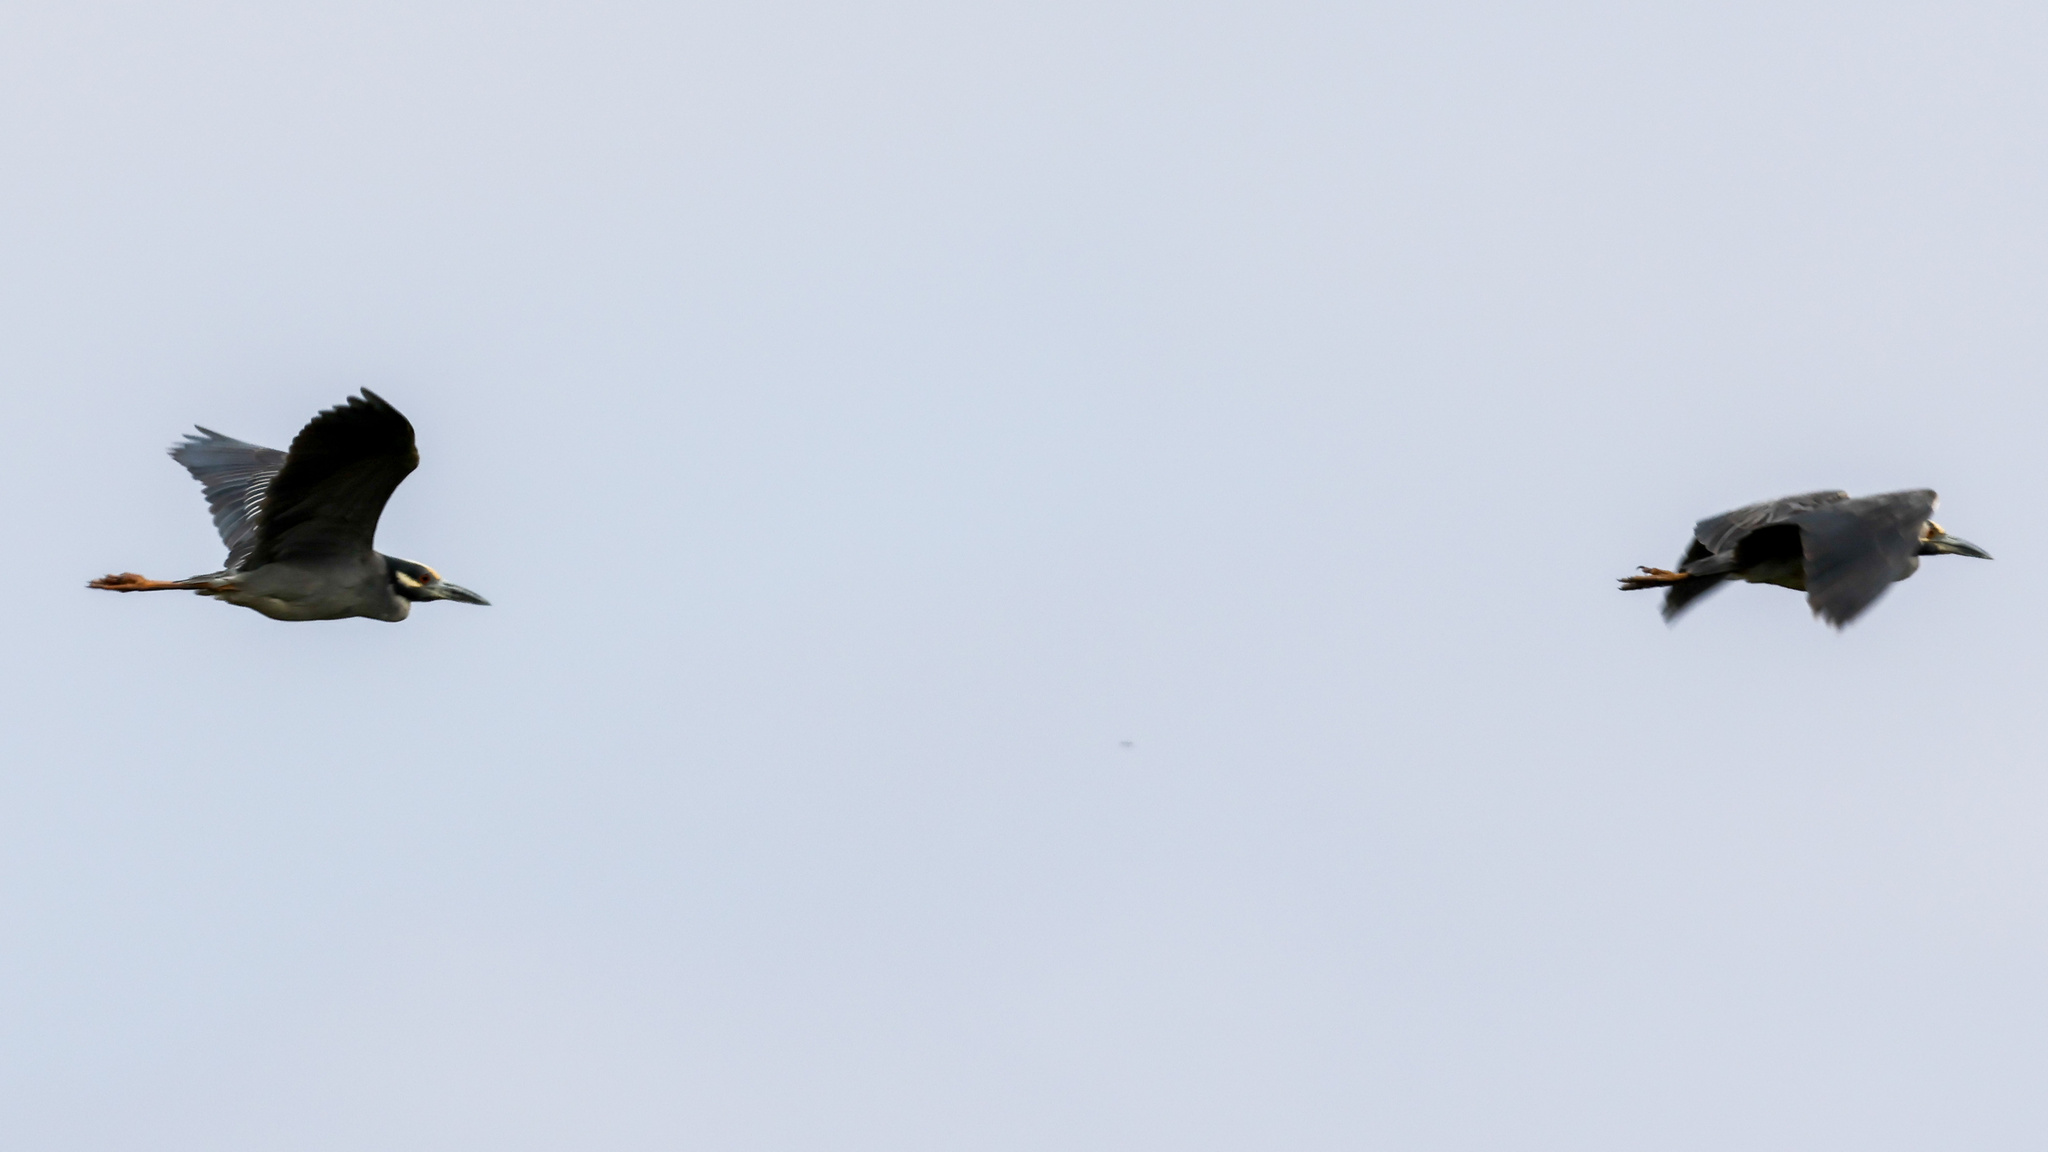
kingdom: Animalia
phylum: Chordata
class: Aves
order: Pelecaniformes
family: Ardeidae
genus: Nyctanassa
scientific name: Nyctanassa violacea
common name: Yellow-crowned night heron
